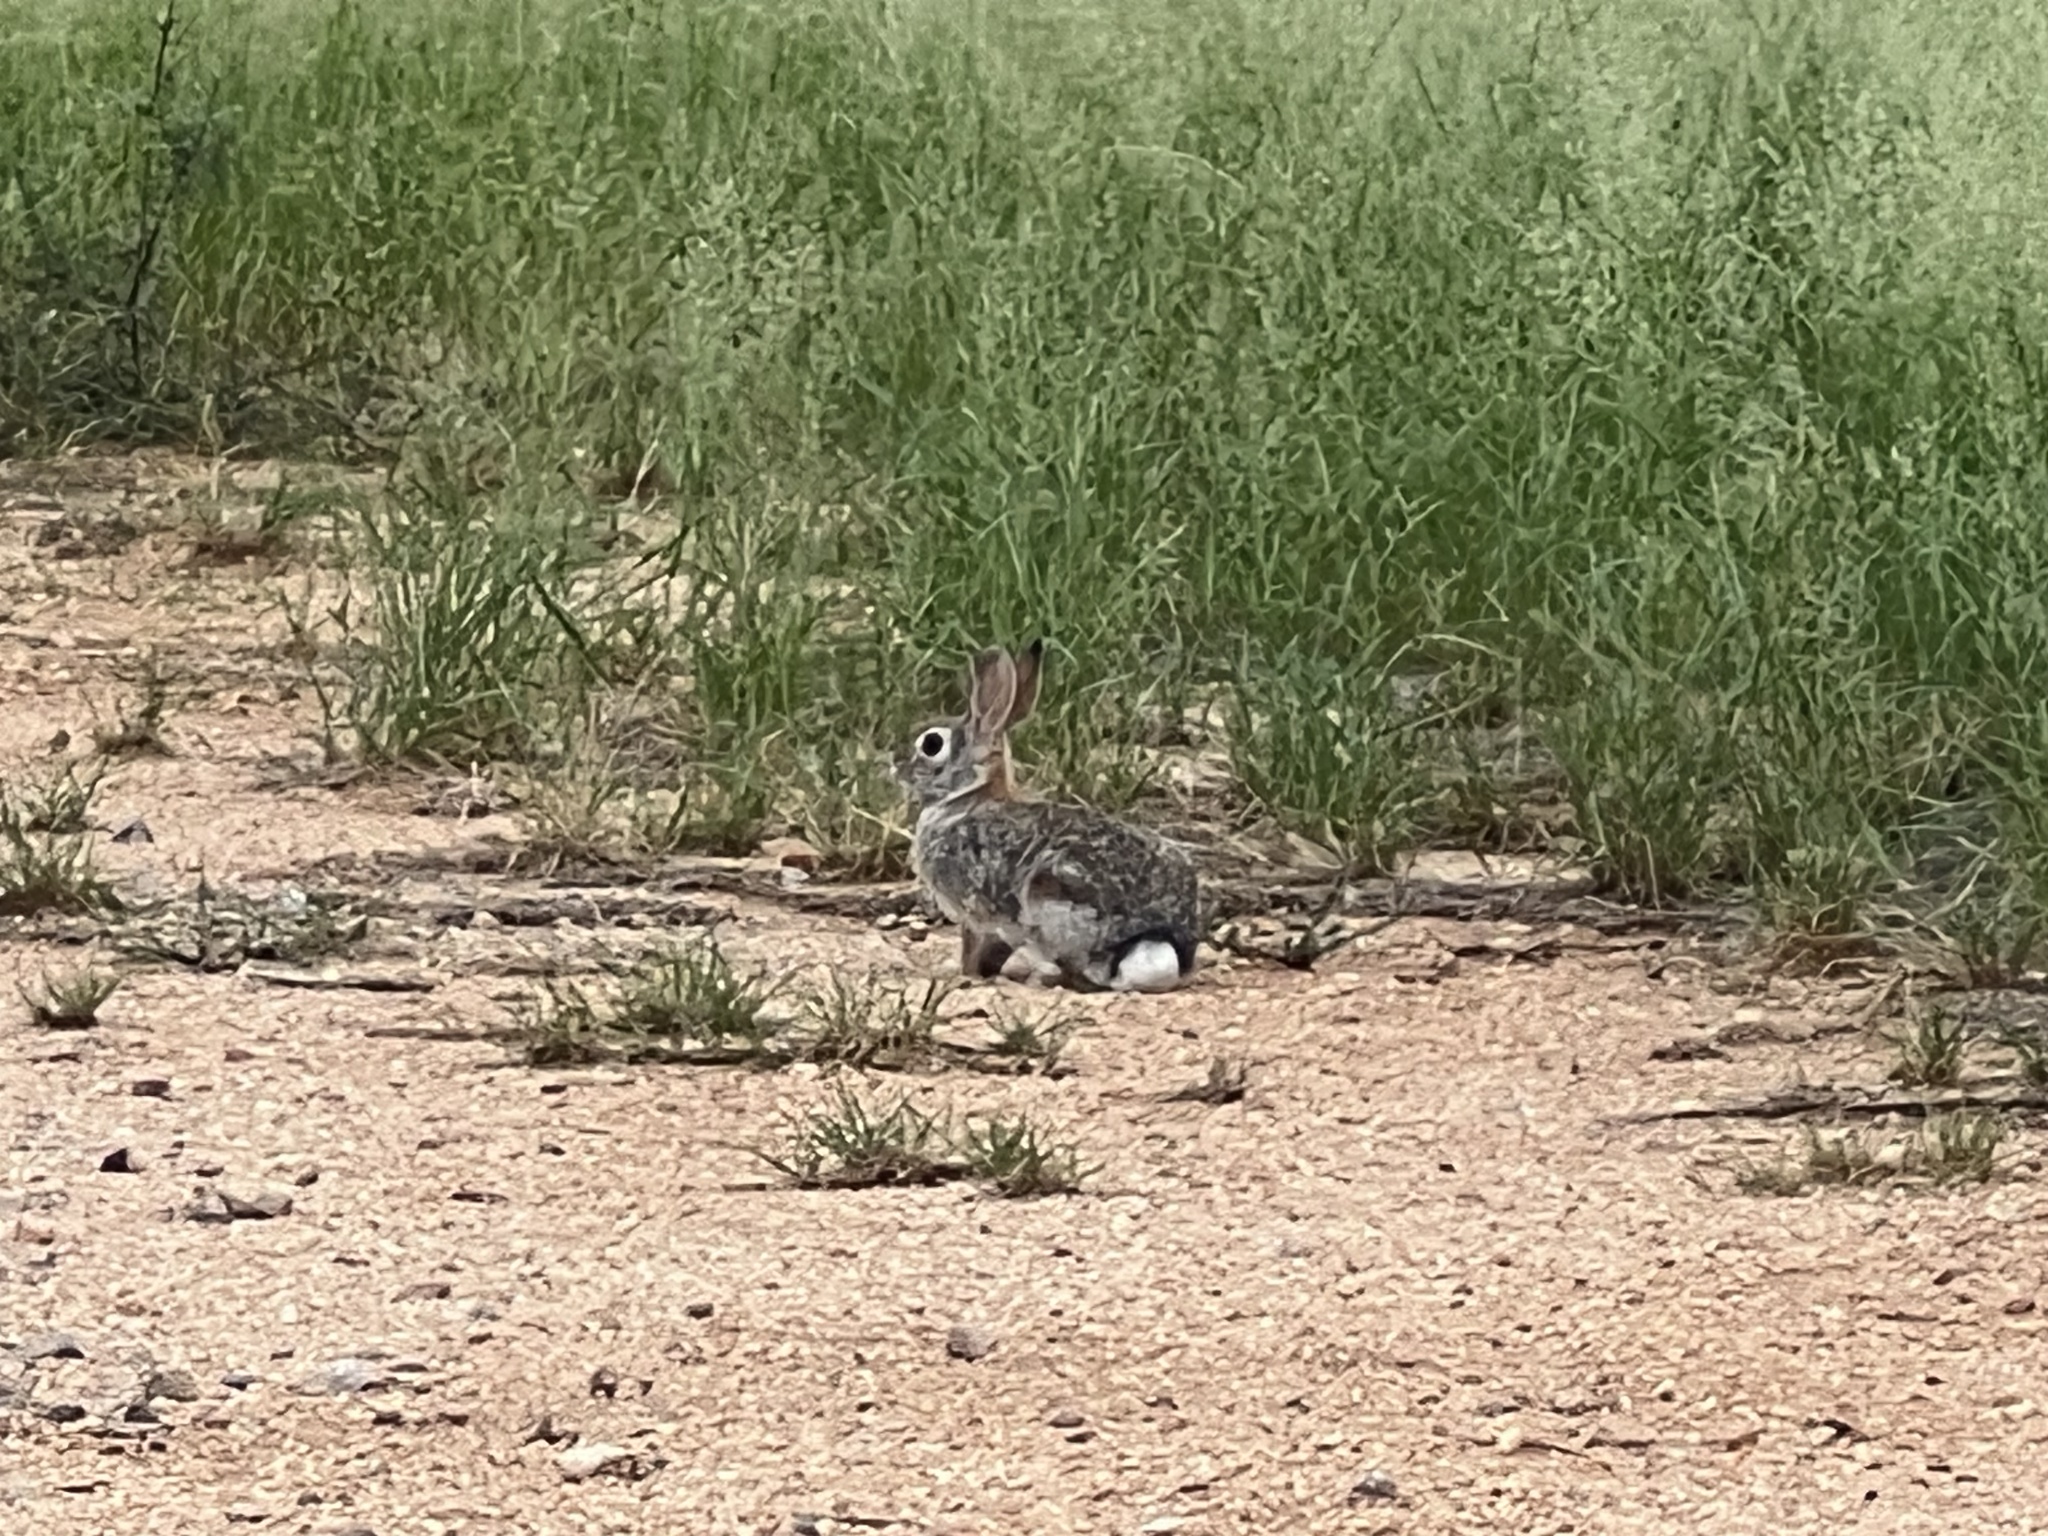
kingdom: Animalia
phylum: Chordata
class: Mammalia
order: Lagomorpha
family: Leporidae
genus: Sylvilagus
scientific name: Sylvilagus audubonii
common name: Desert cottontail
